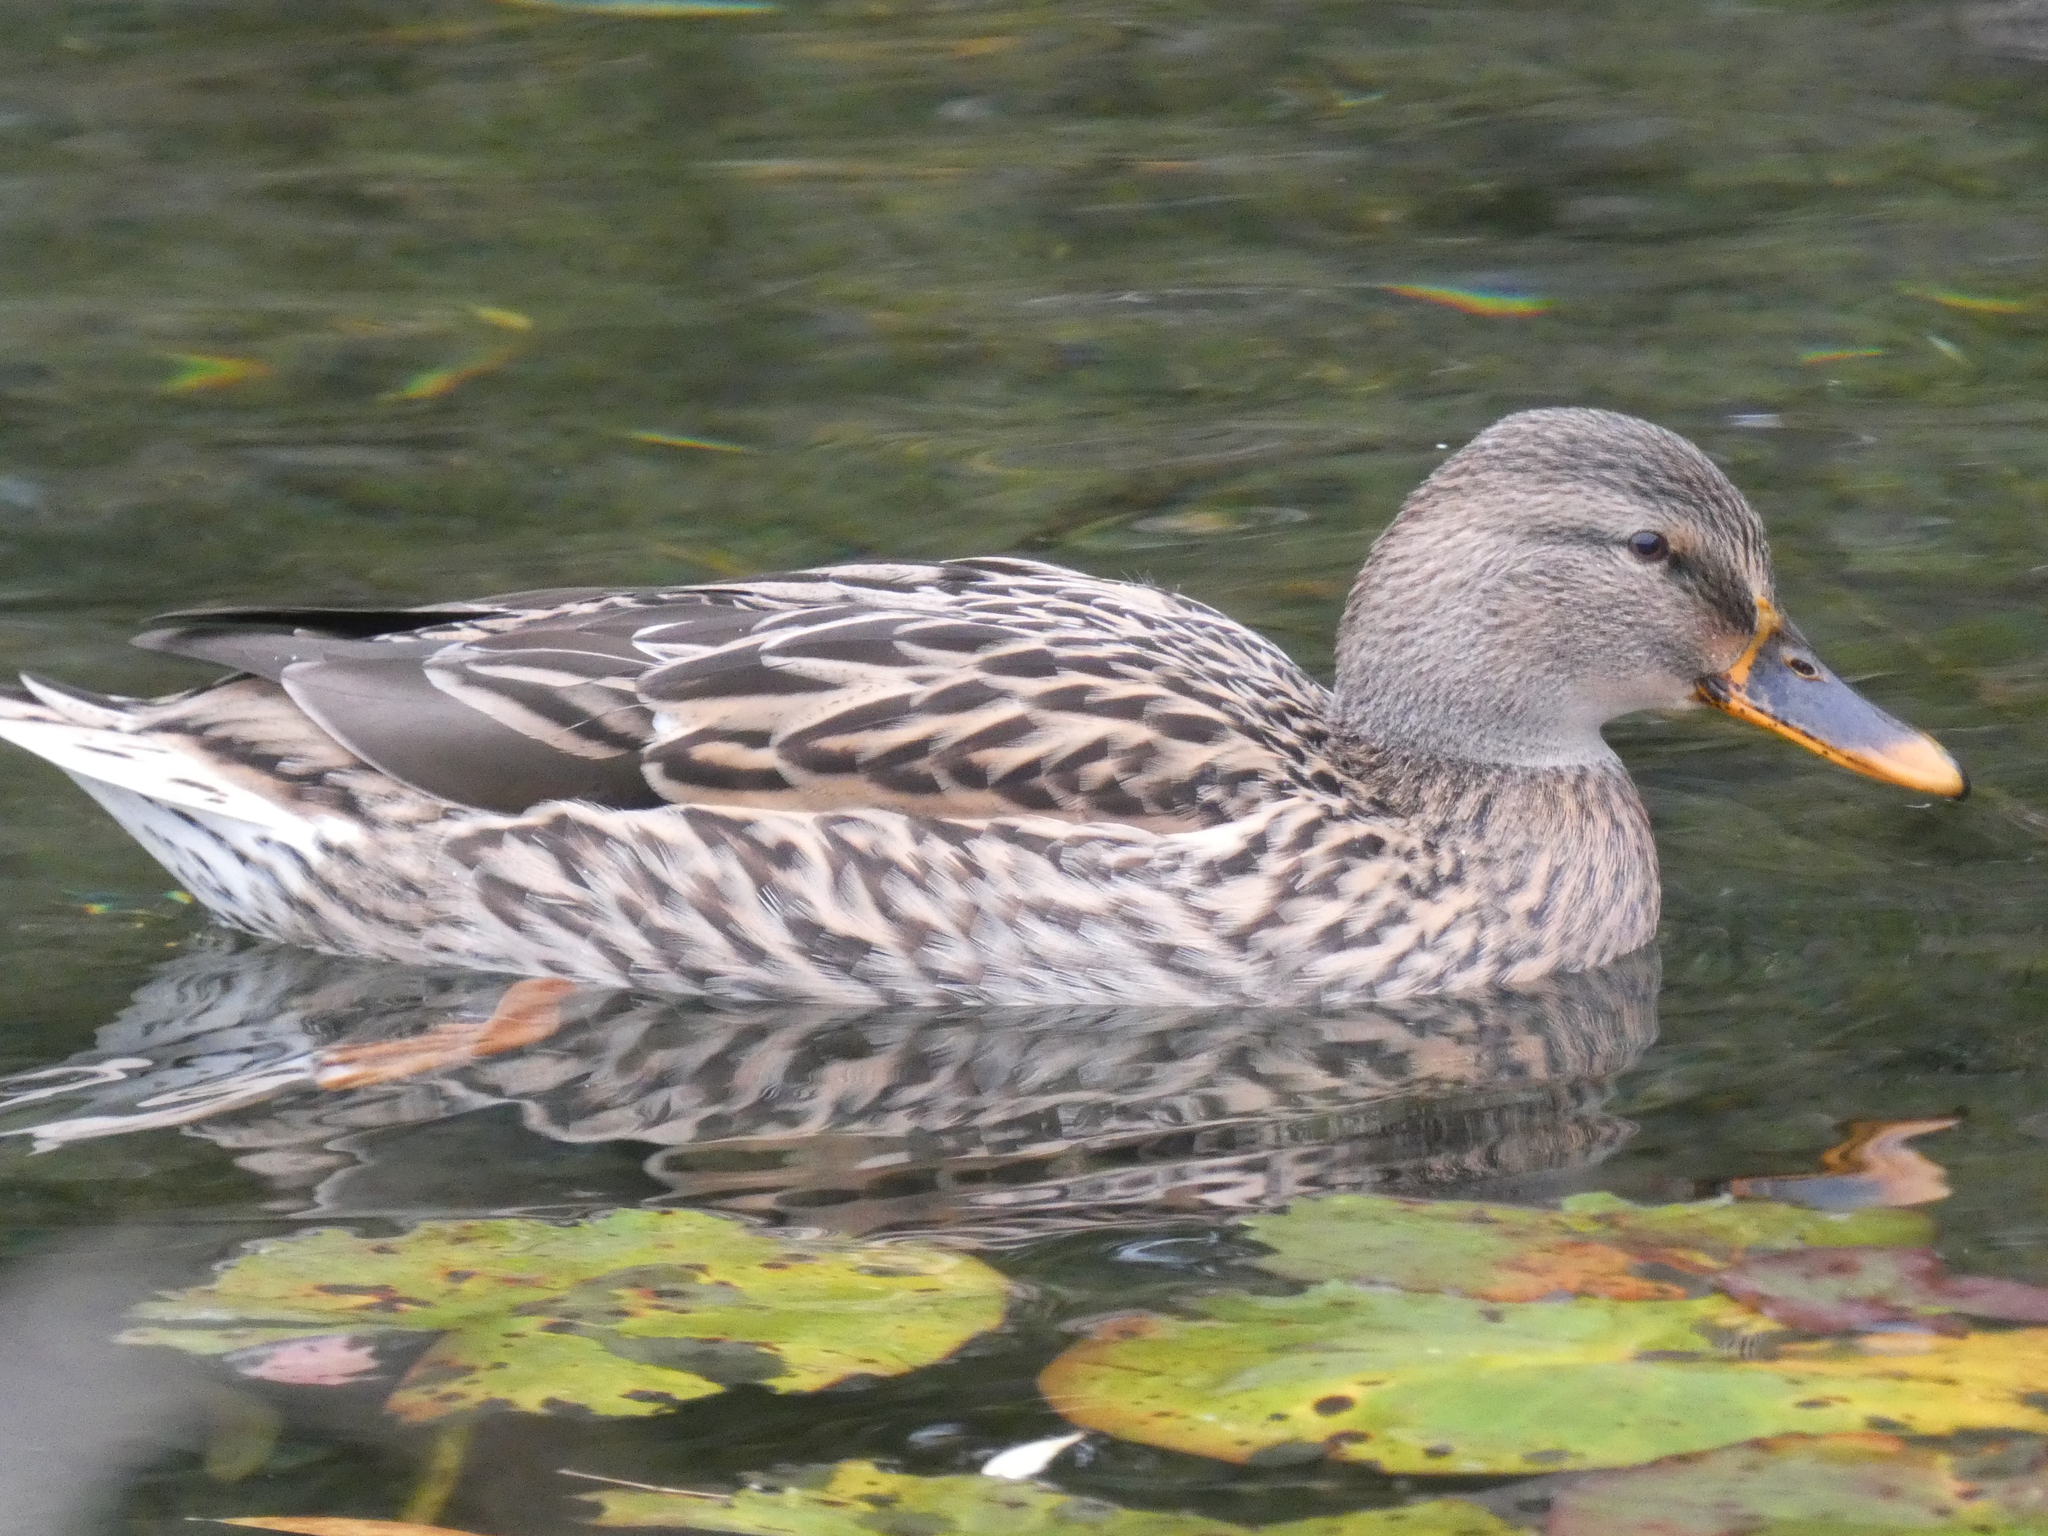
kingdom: Animalia
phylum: Chordata
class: Aves
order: Anseriformes
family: Anatidae
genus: Anas
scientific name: Anas platyrhynchos
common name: Mallard
